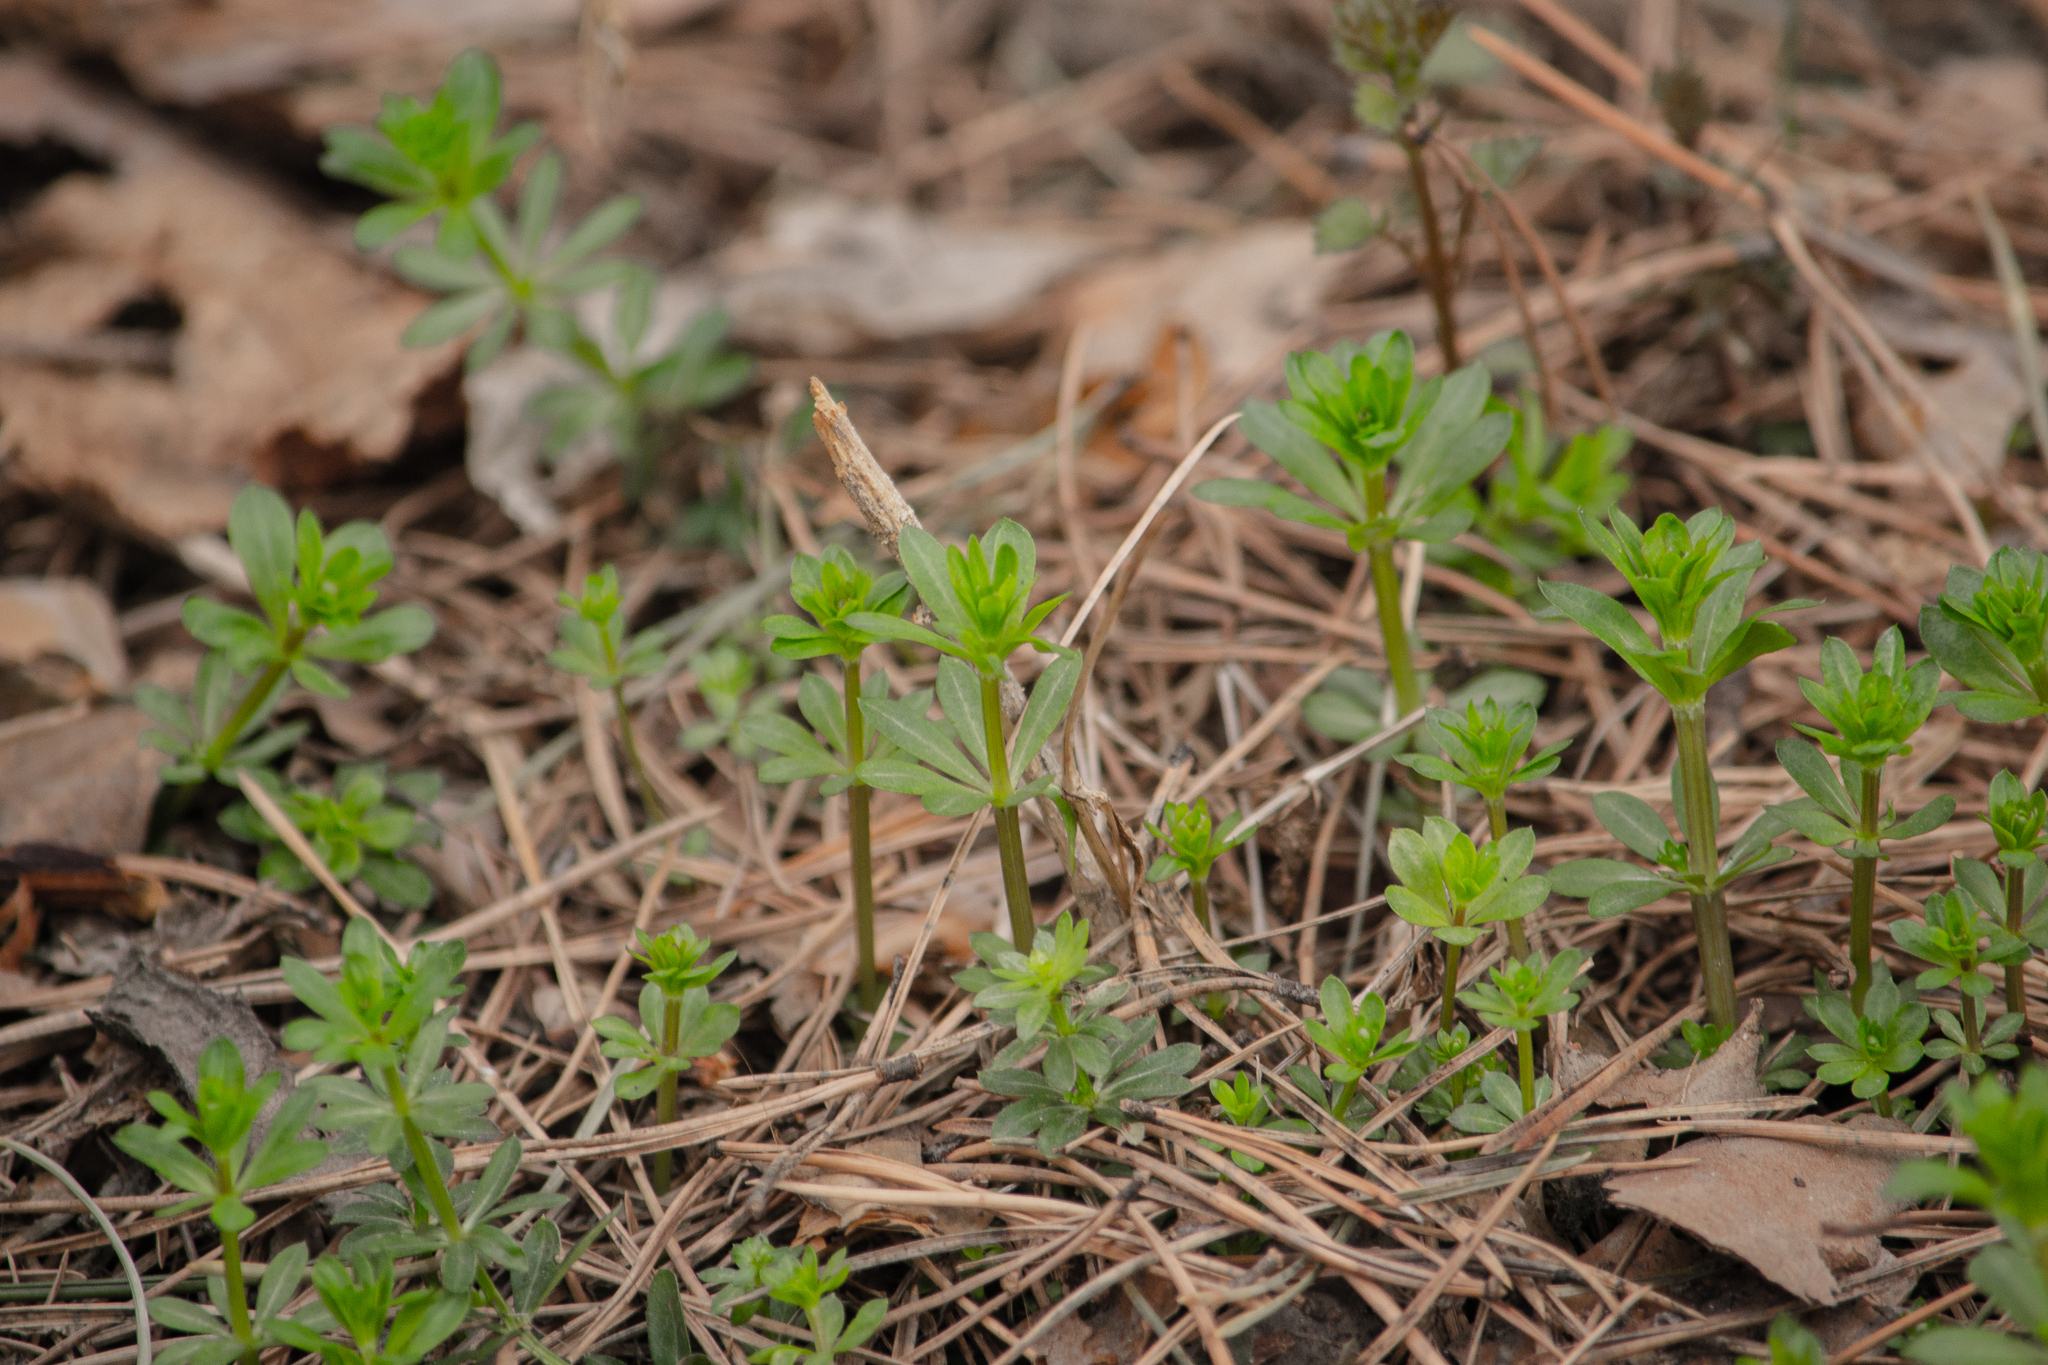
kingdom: Plantae
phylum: Tracheophyta
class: Magnoliopsida
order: Gentianales
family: Rubiaceae
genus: Galium
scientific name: Galium mollugo
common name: Hedge bedstraw
